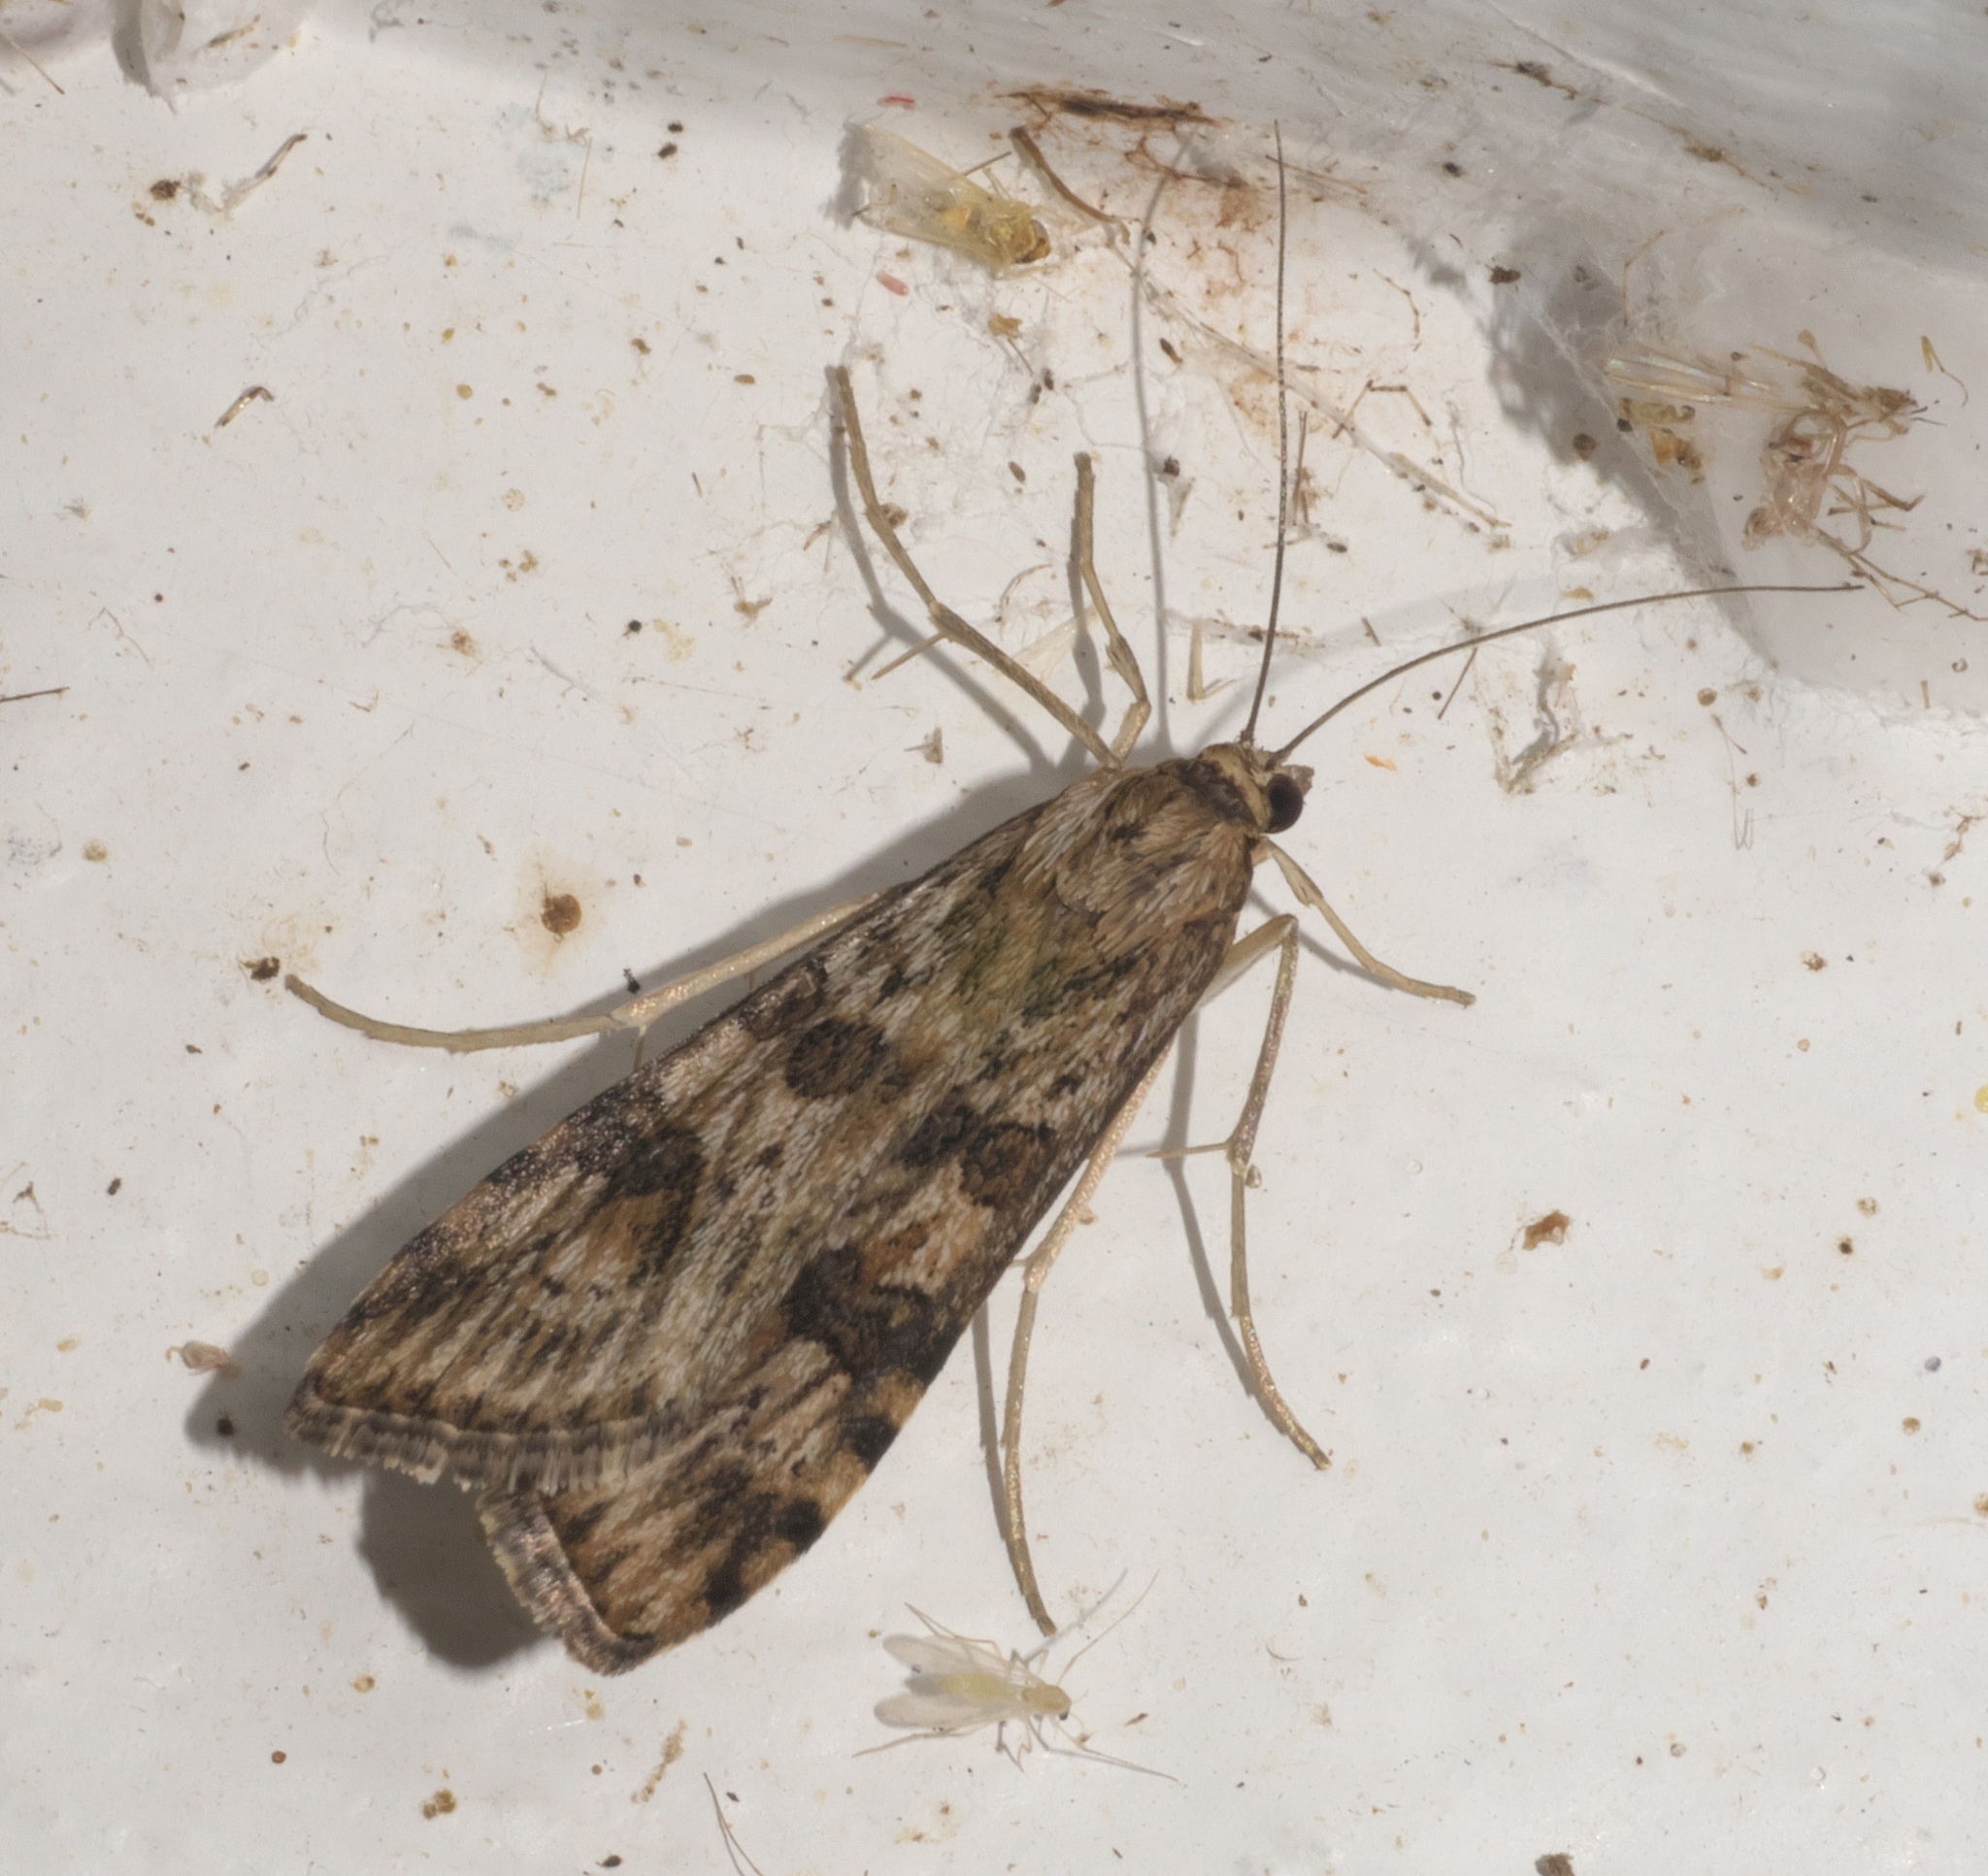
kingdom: Animalia
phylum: Arthropoda
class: Insecta
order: Lepidoptera
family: Crambidae
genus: Nomophila
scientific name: Nomophila nearctica
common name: American rush veneer
